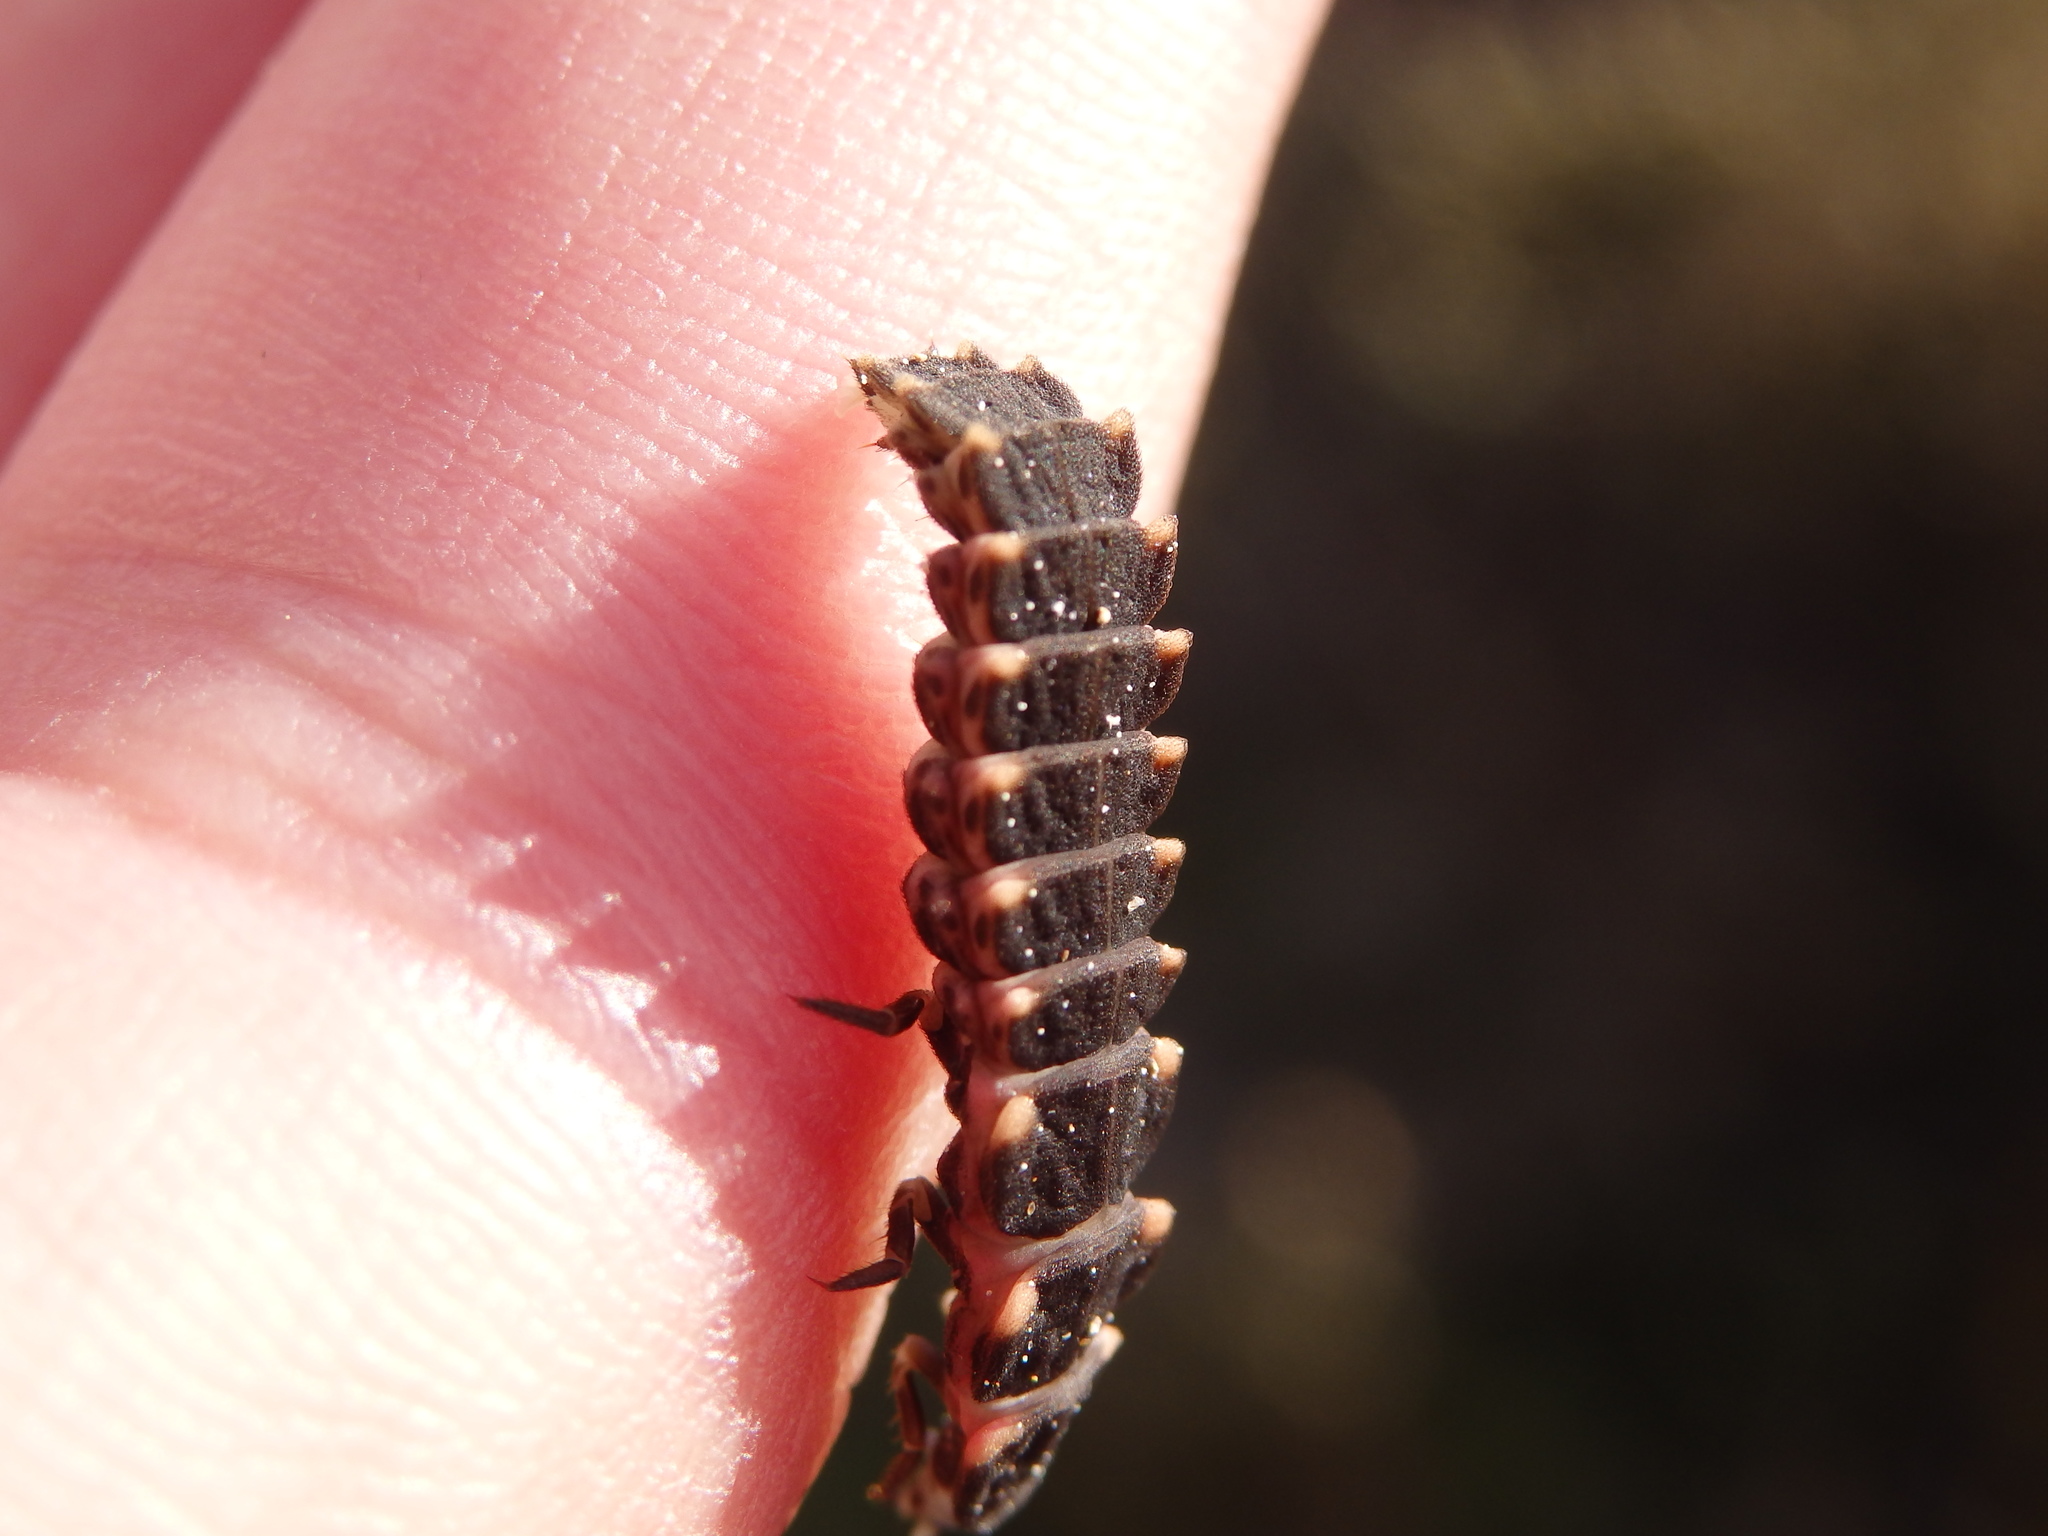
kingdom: Animalia
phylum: Arthropoda
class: Insecta
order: Coleoptera
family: Lampyridae
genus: Lampyris
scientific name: Lampyris noctiluca
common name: Glow-worm
